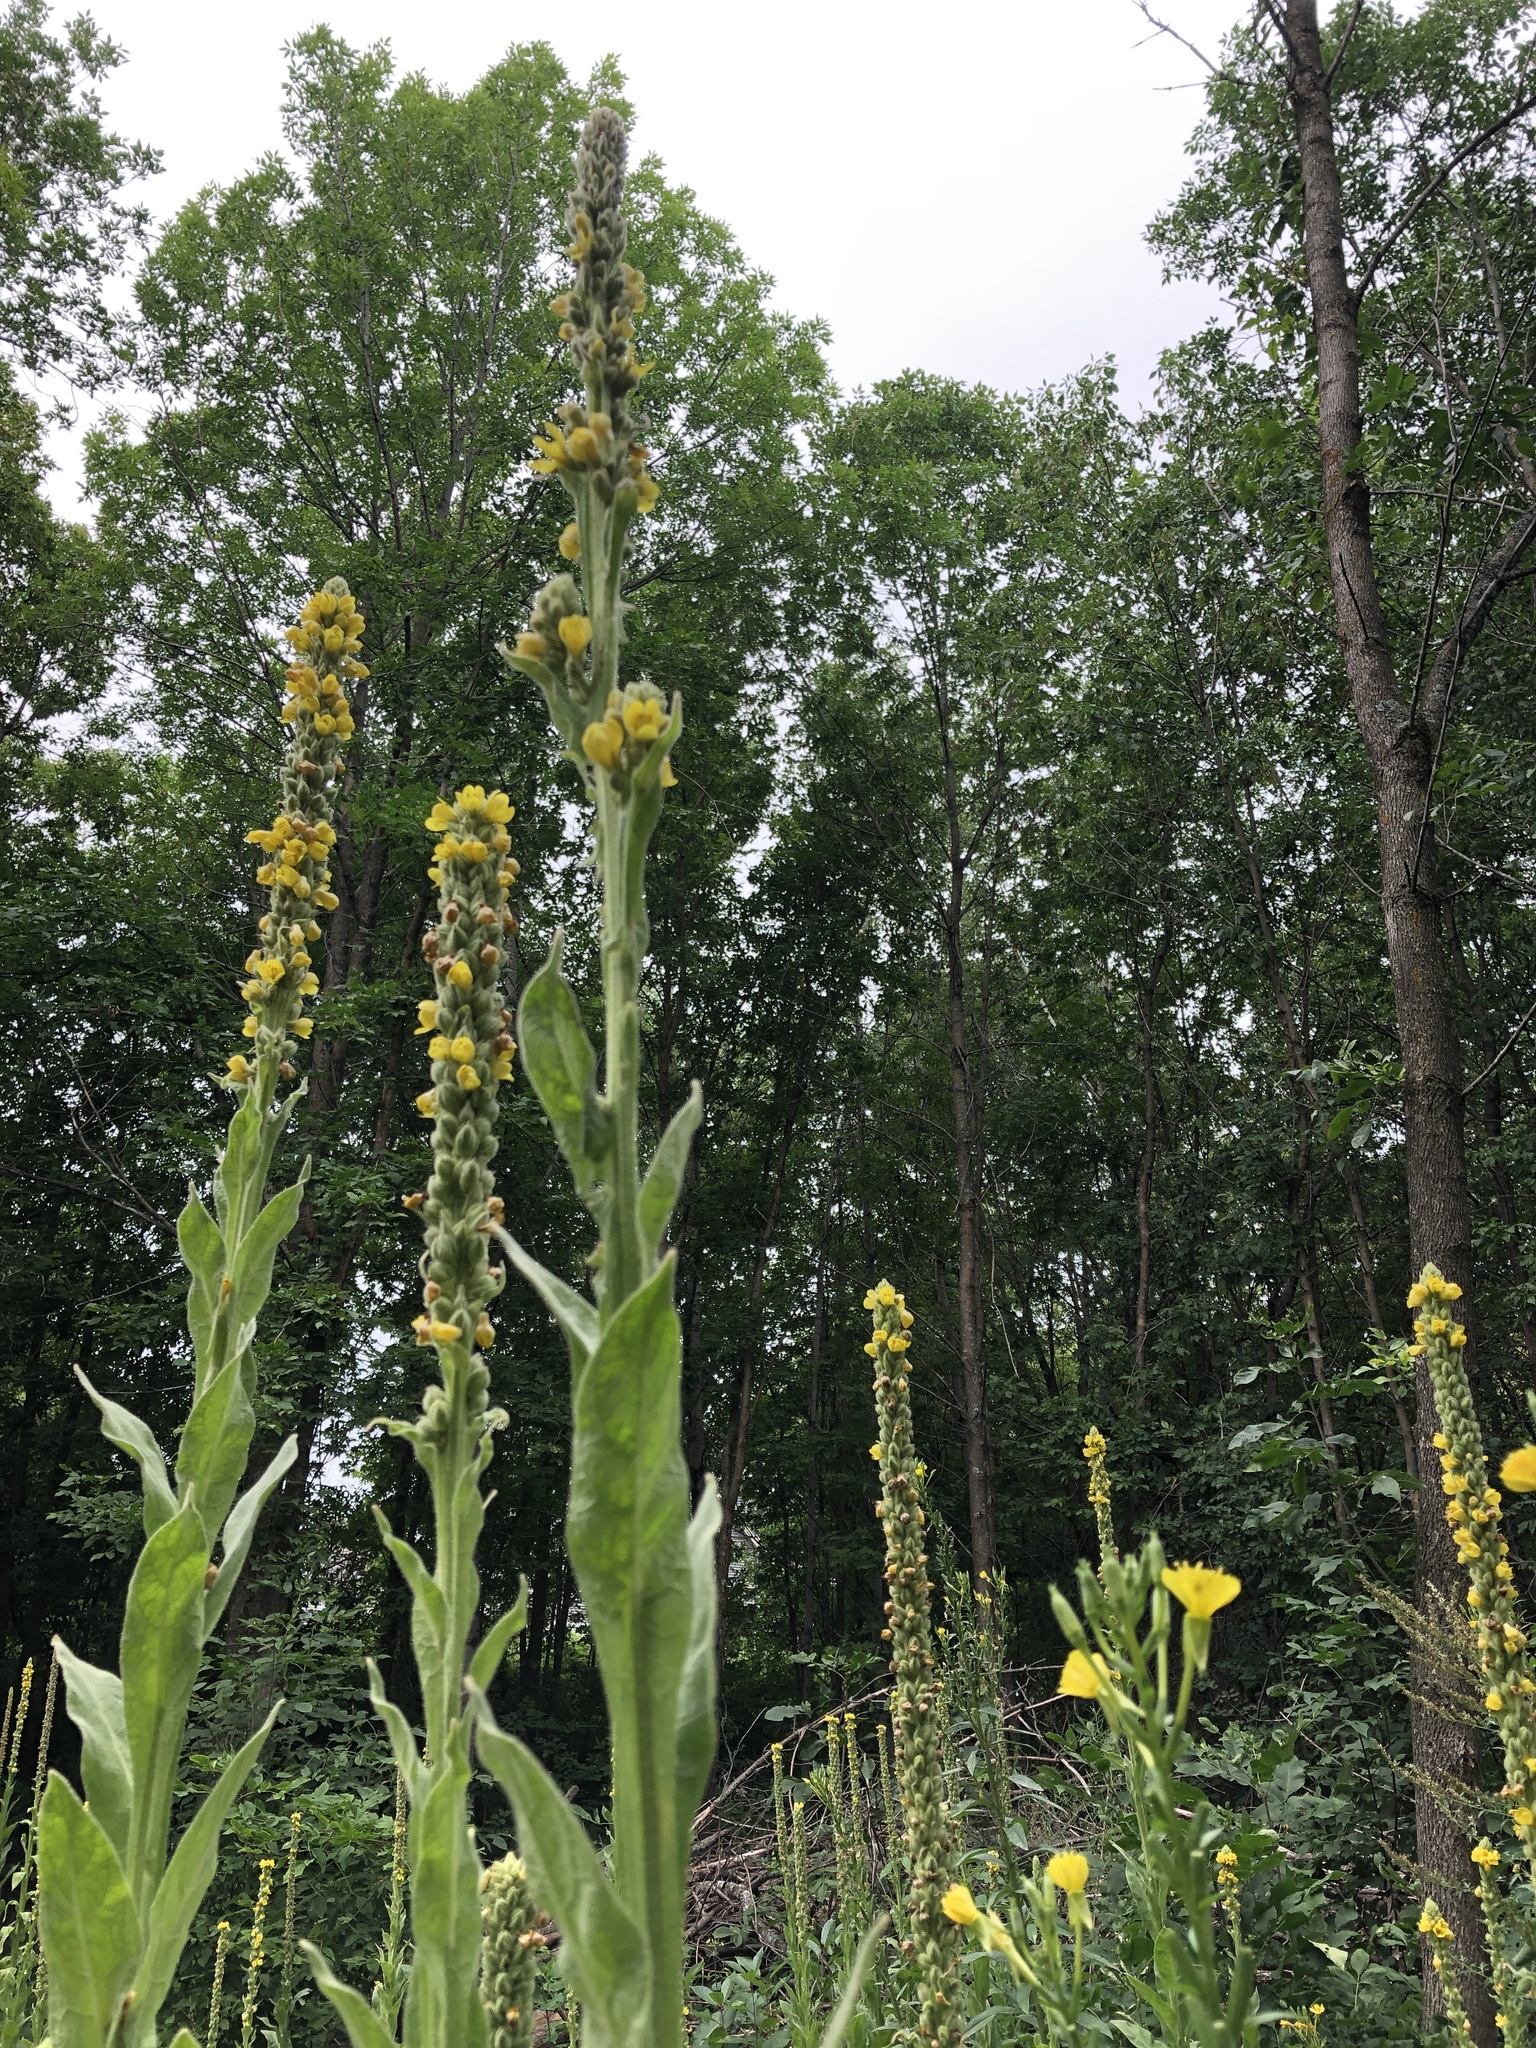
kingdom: Plantae
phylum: Tracheophyta
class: Magnoliopsida
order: Lamiales
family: Scrophulariaceae
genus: Verbascum
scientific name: Verbascum thapsus
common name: Common mullein
